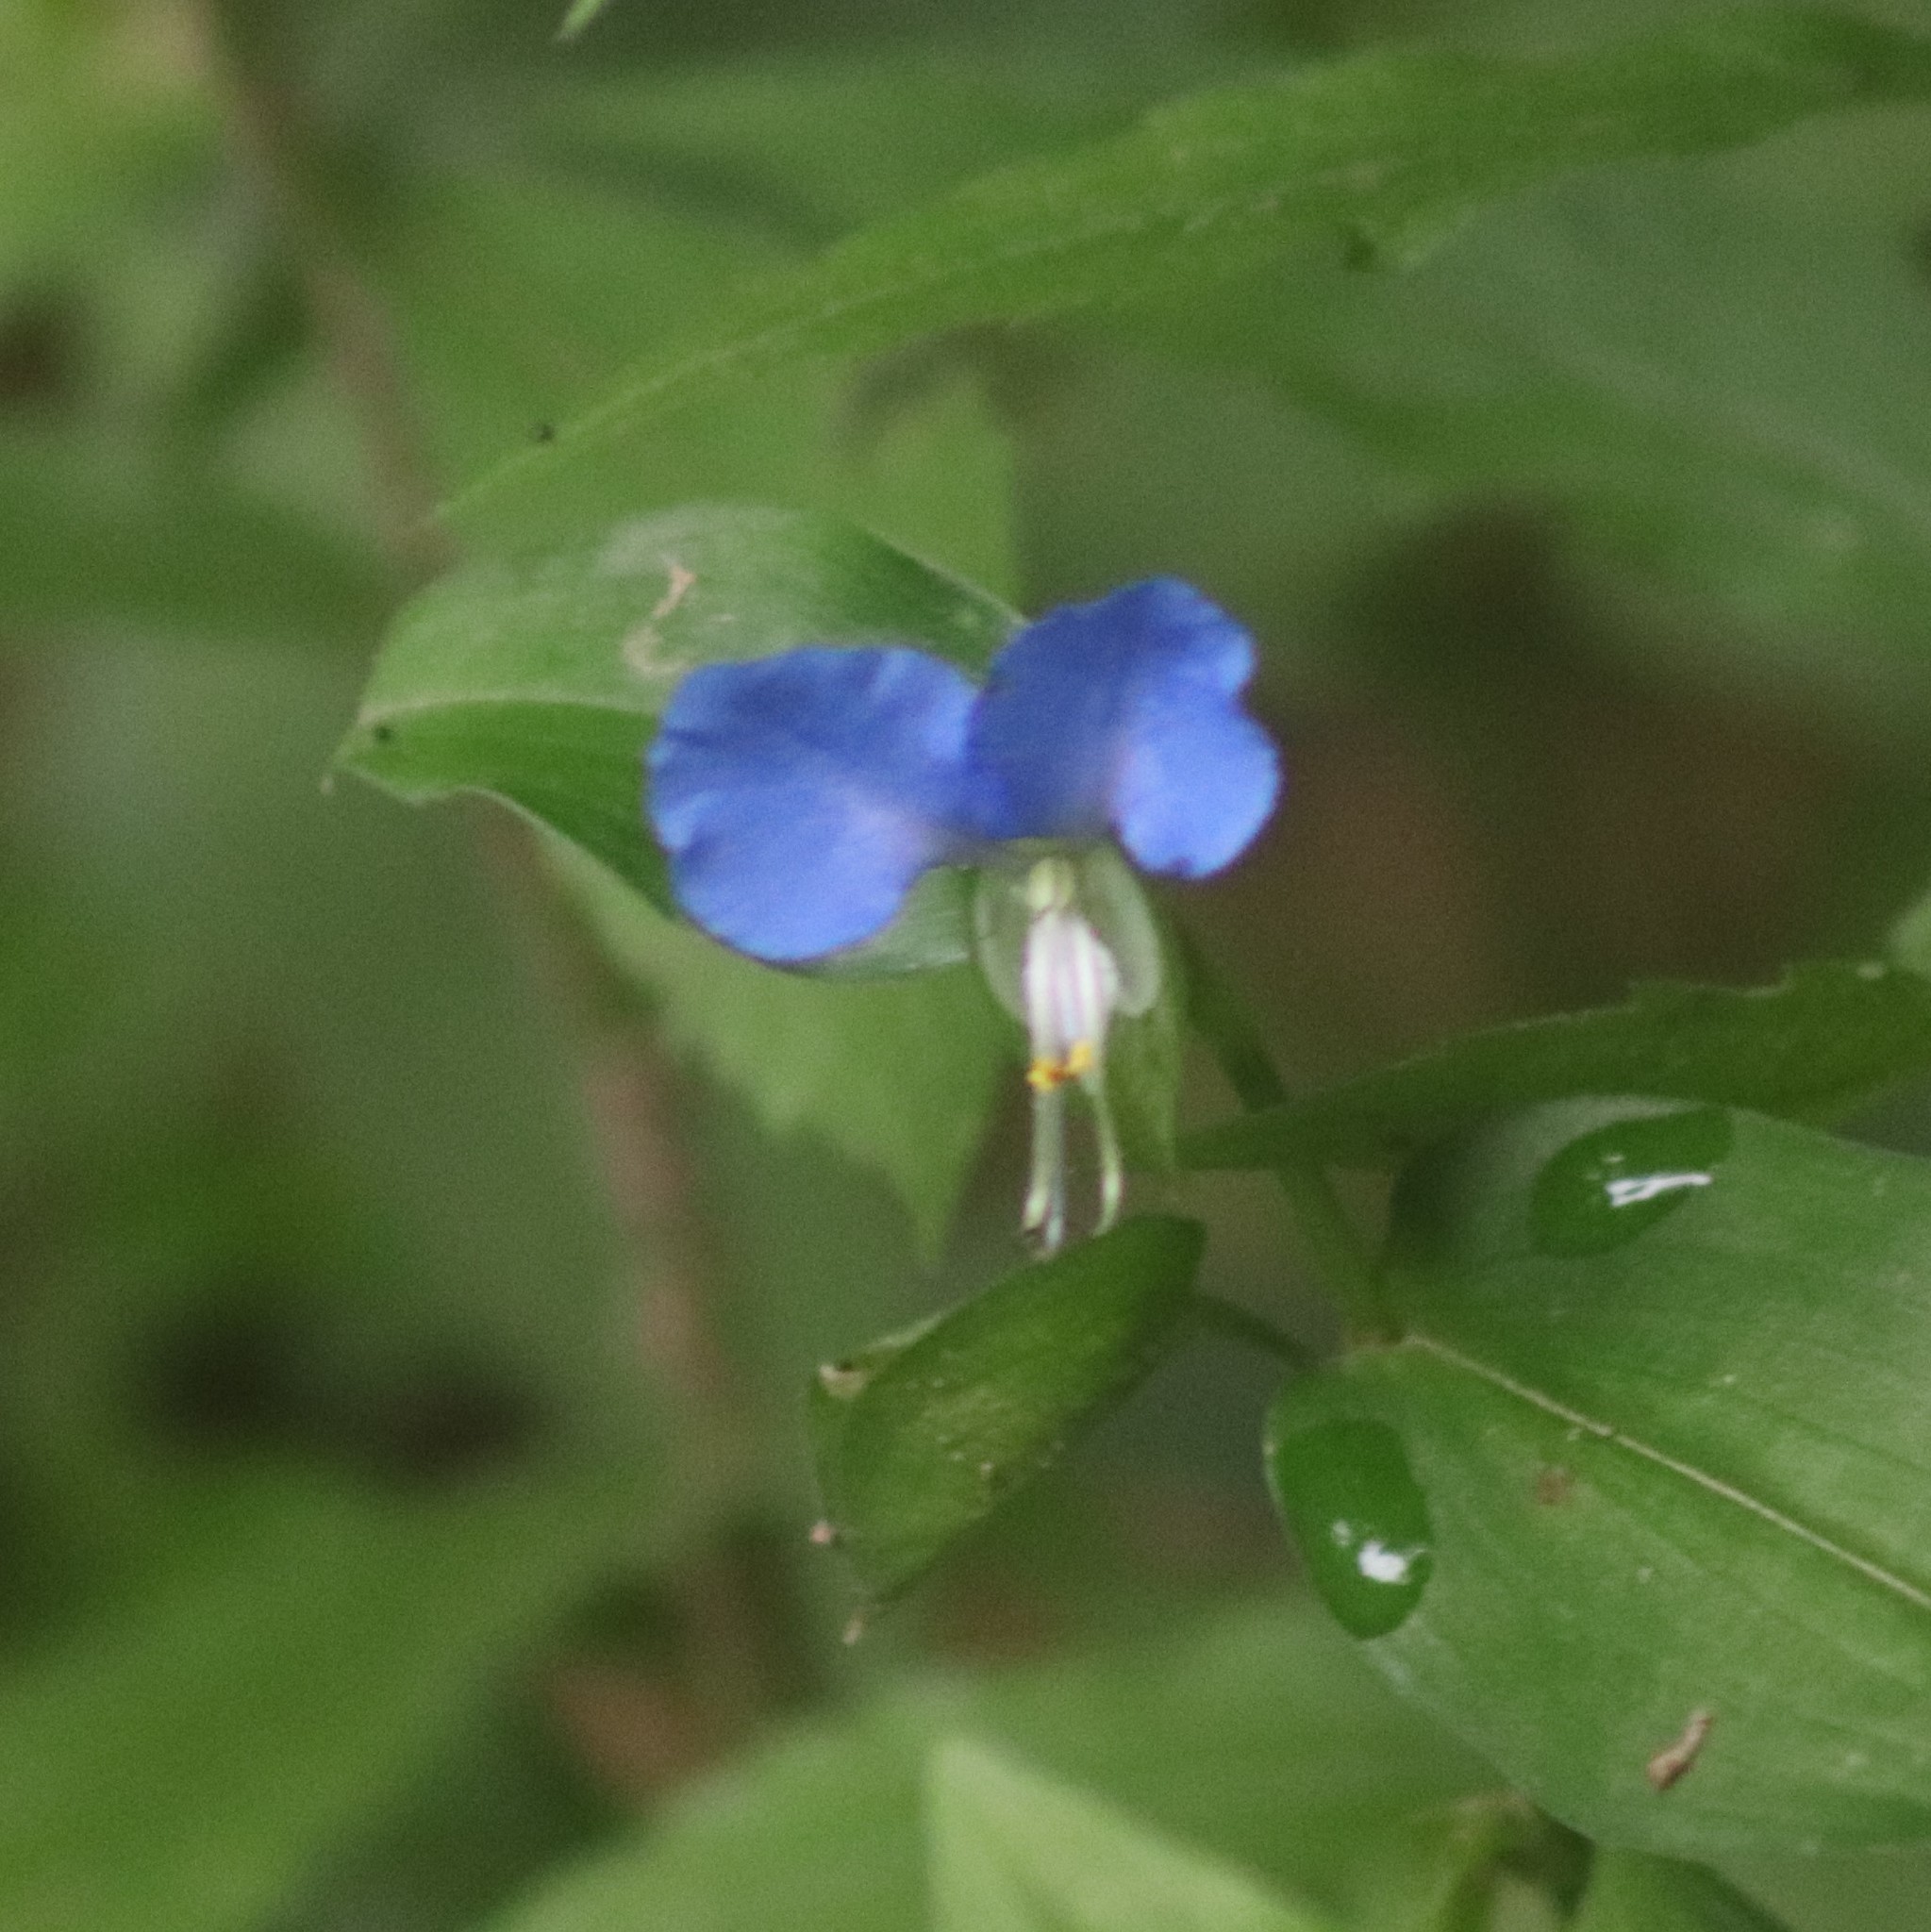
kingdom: Plantae
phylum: Tracheophyta
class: Liliopsida
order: Commelinales
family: Commelinaceae
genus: Commelina
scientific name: Commelina communis
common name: Asiatic dayflower
